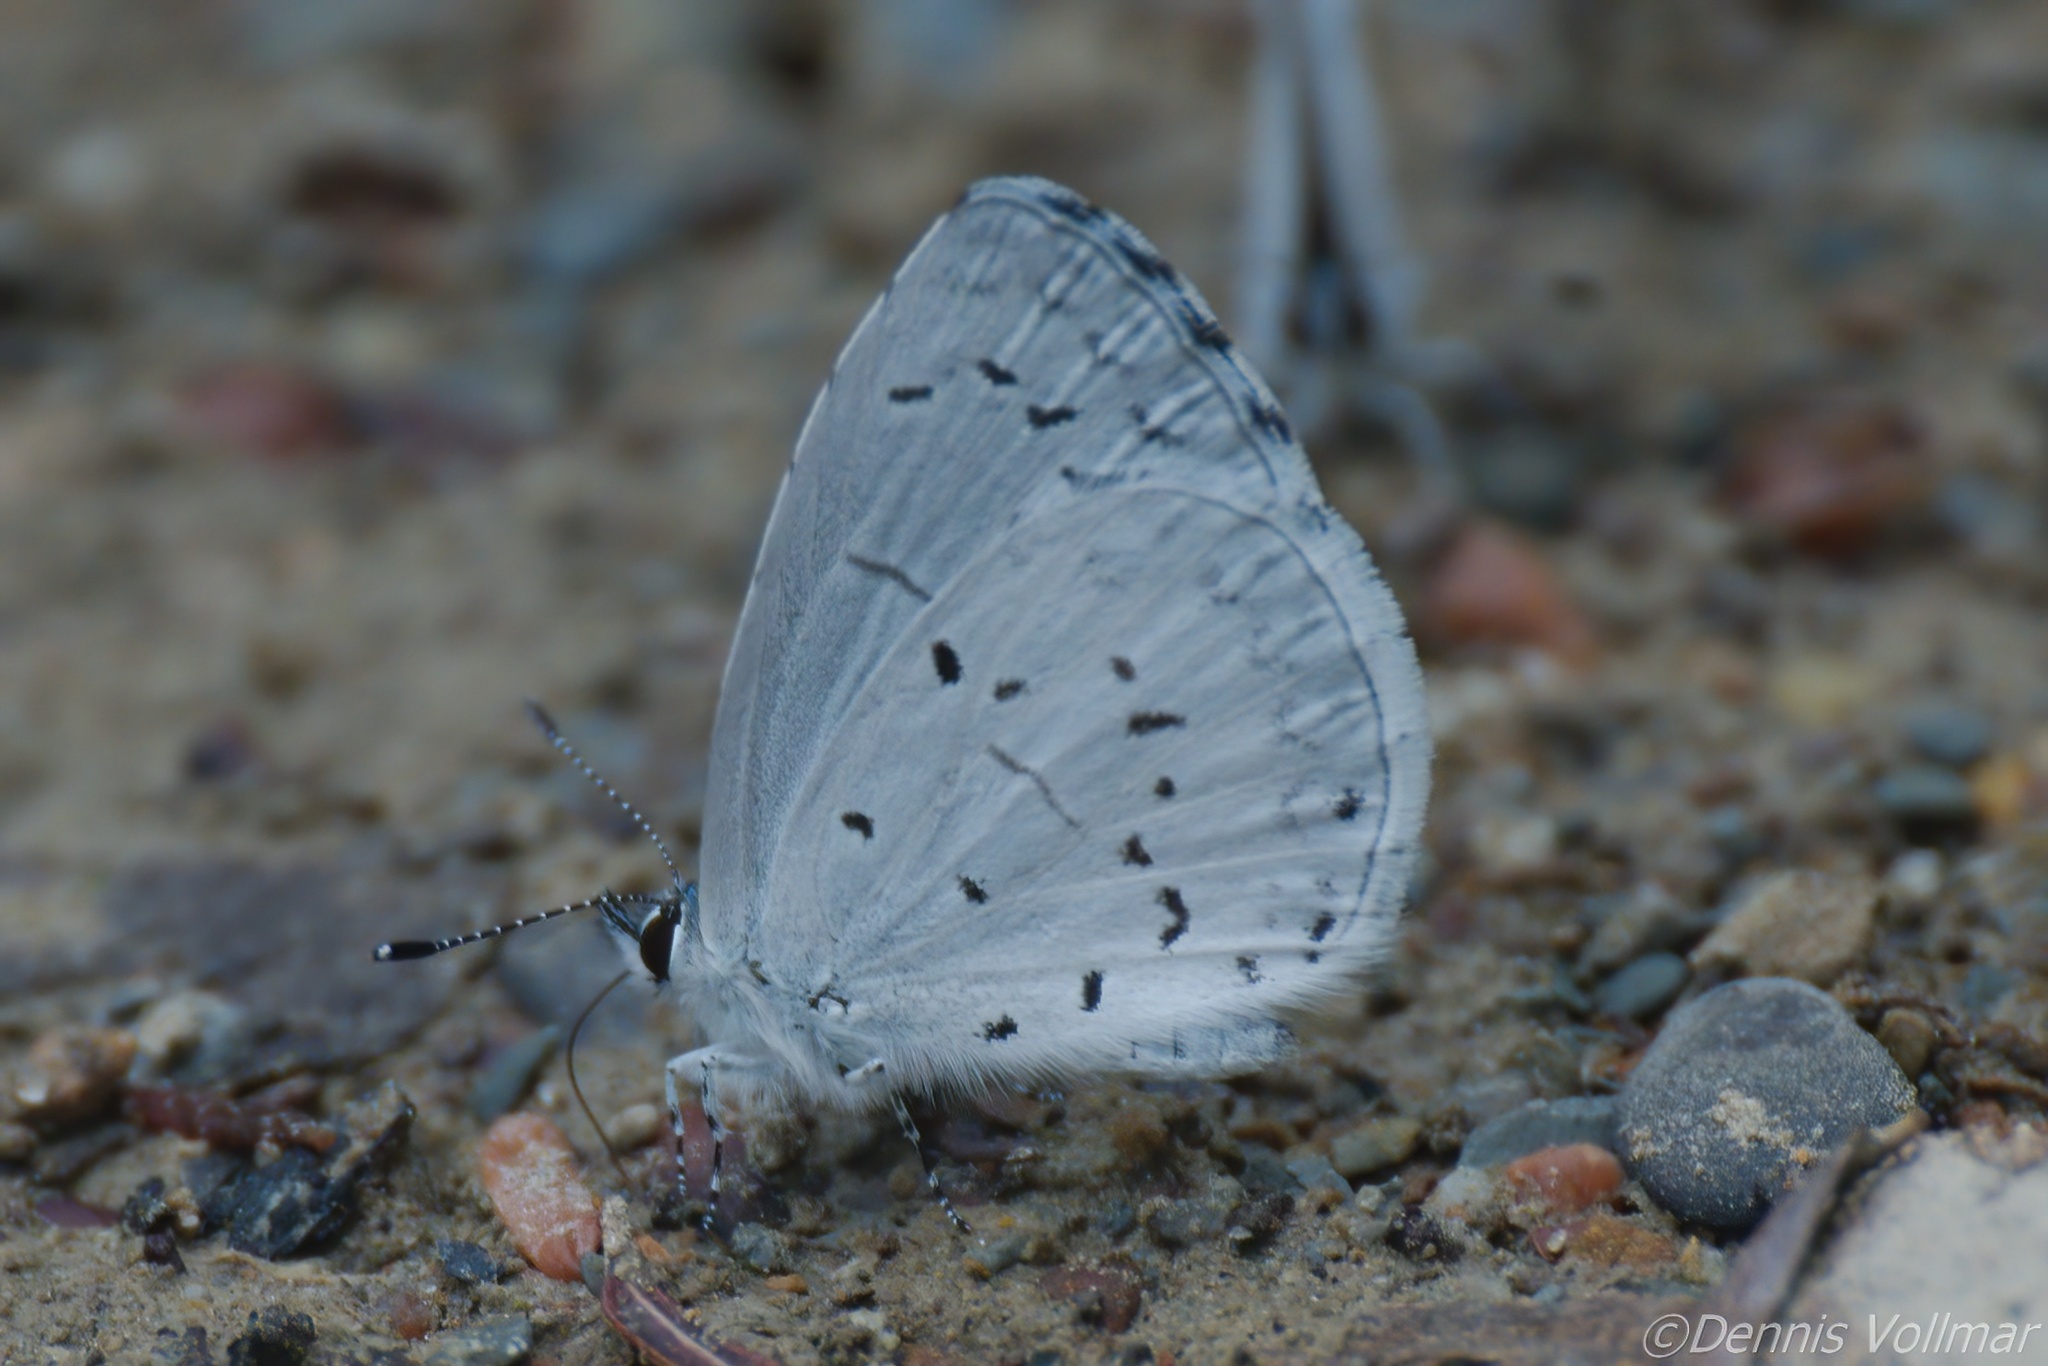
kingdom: Animalia
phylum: Arthropoda
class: Insecta
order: Lepidoptera
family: Lycaenidae
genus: Cyaniris
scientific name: Cyaniris neglecta
